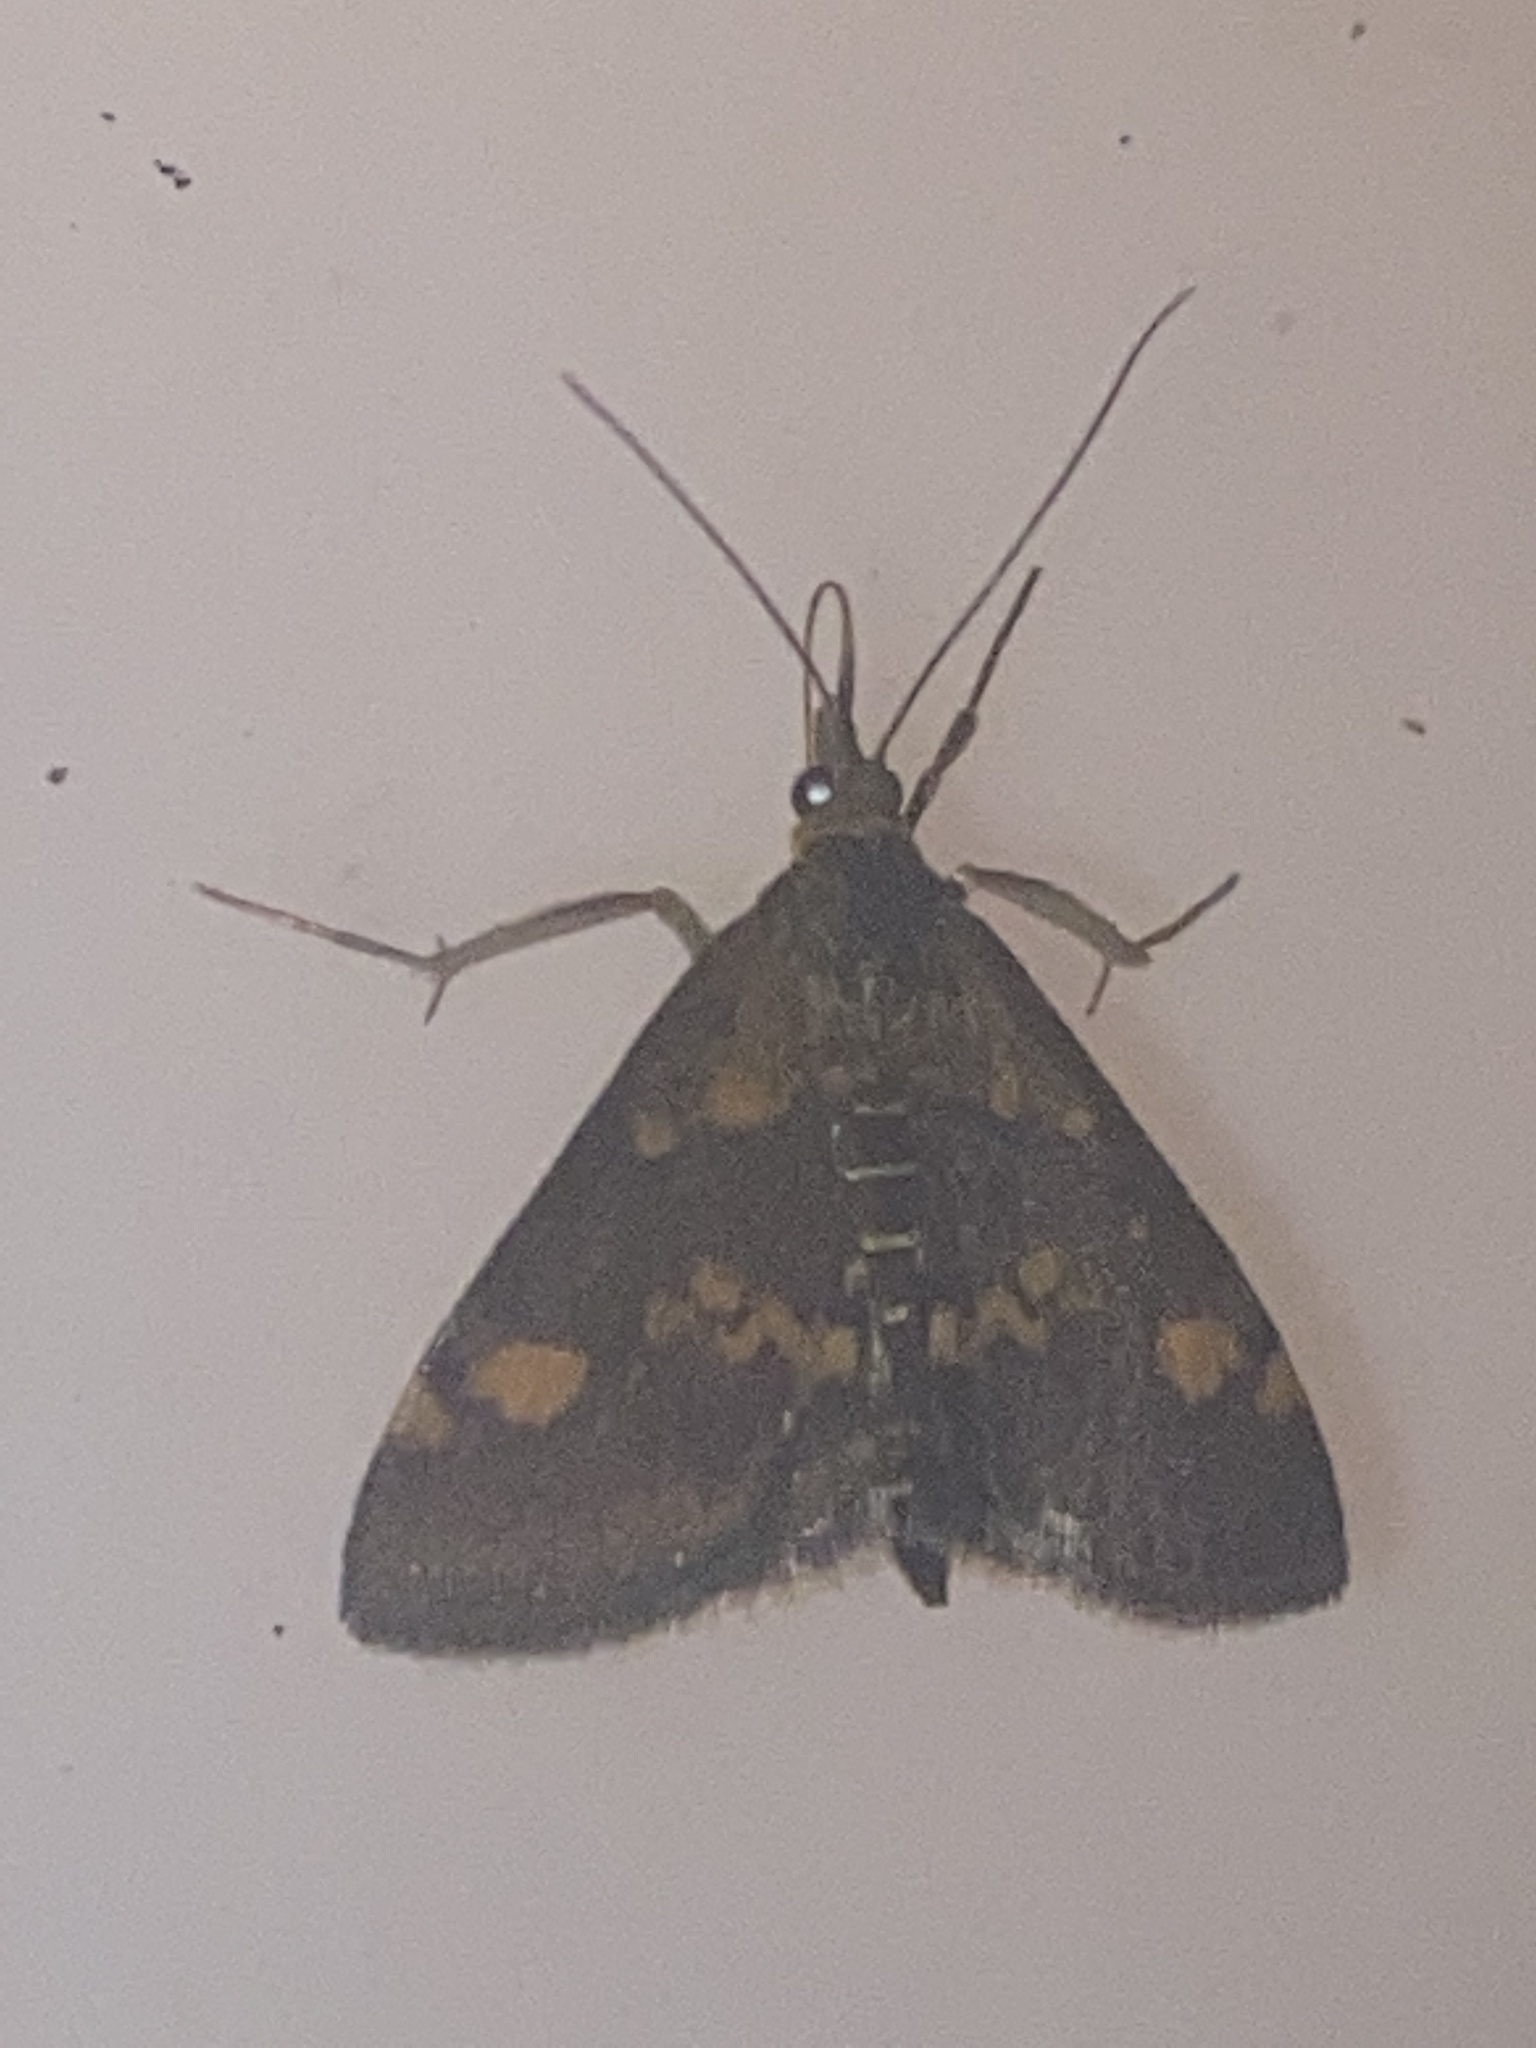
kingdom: Animalia
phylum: Arthropoda
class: Insecta
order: Lepidoptera
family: Crambidae
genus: Pyrausta
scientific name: Pyrausta aurata
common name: Small purple & gold
